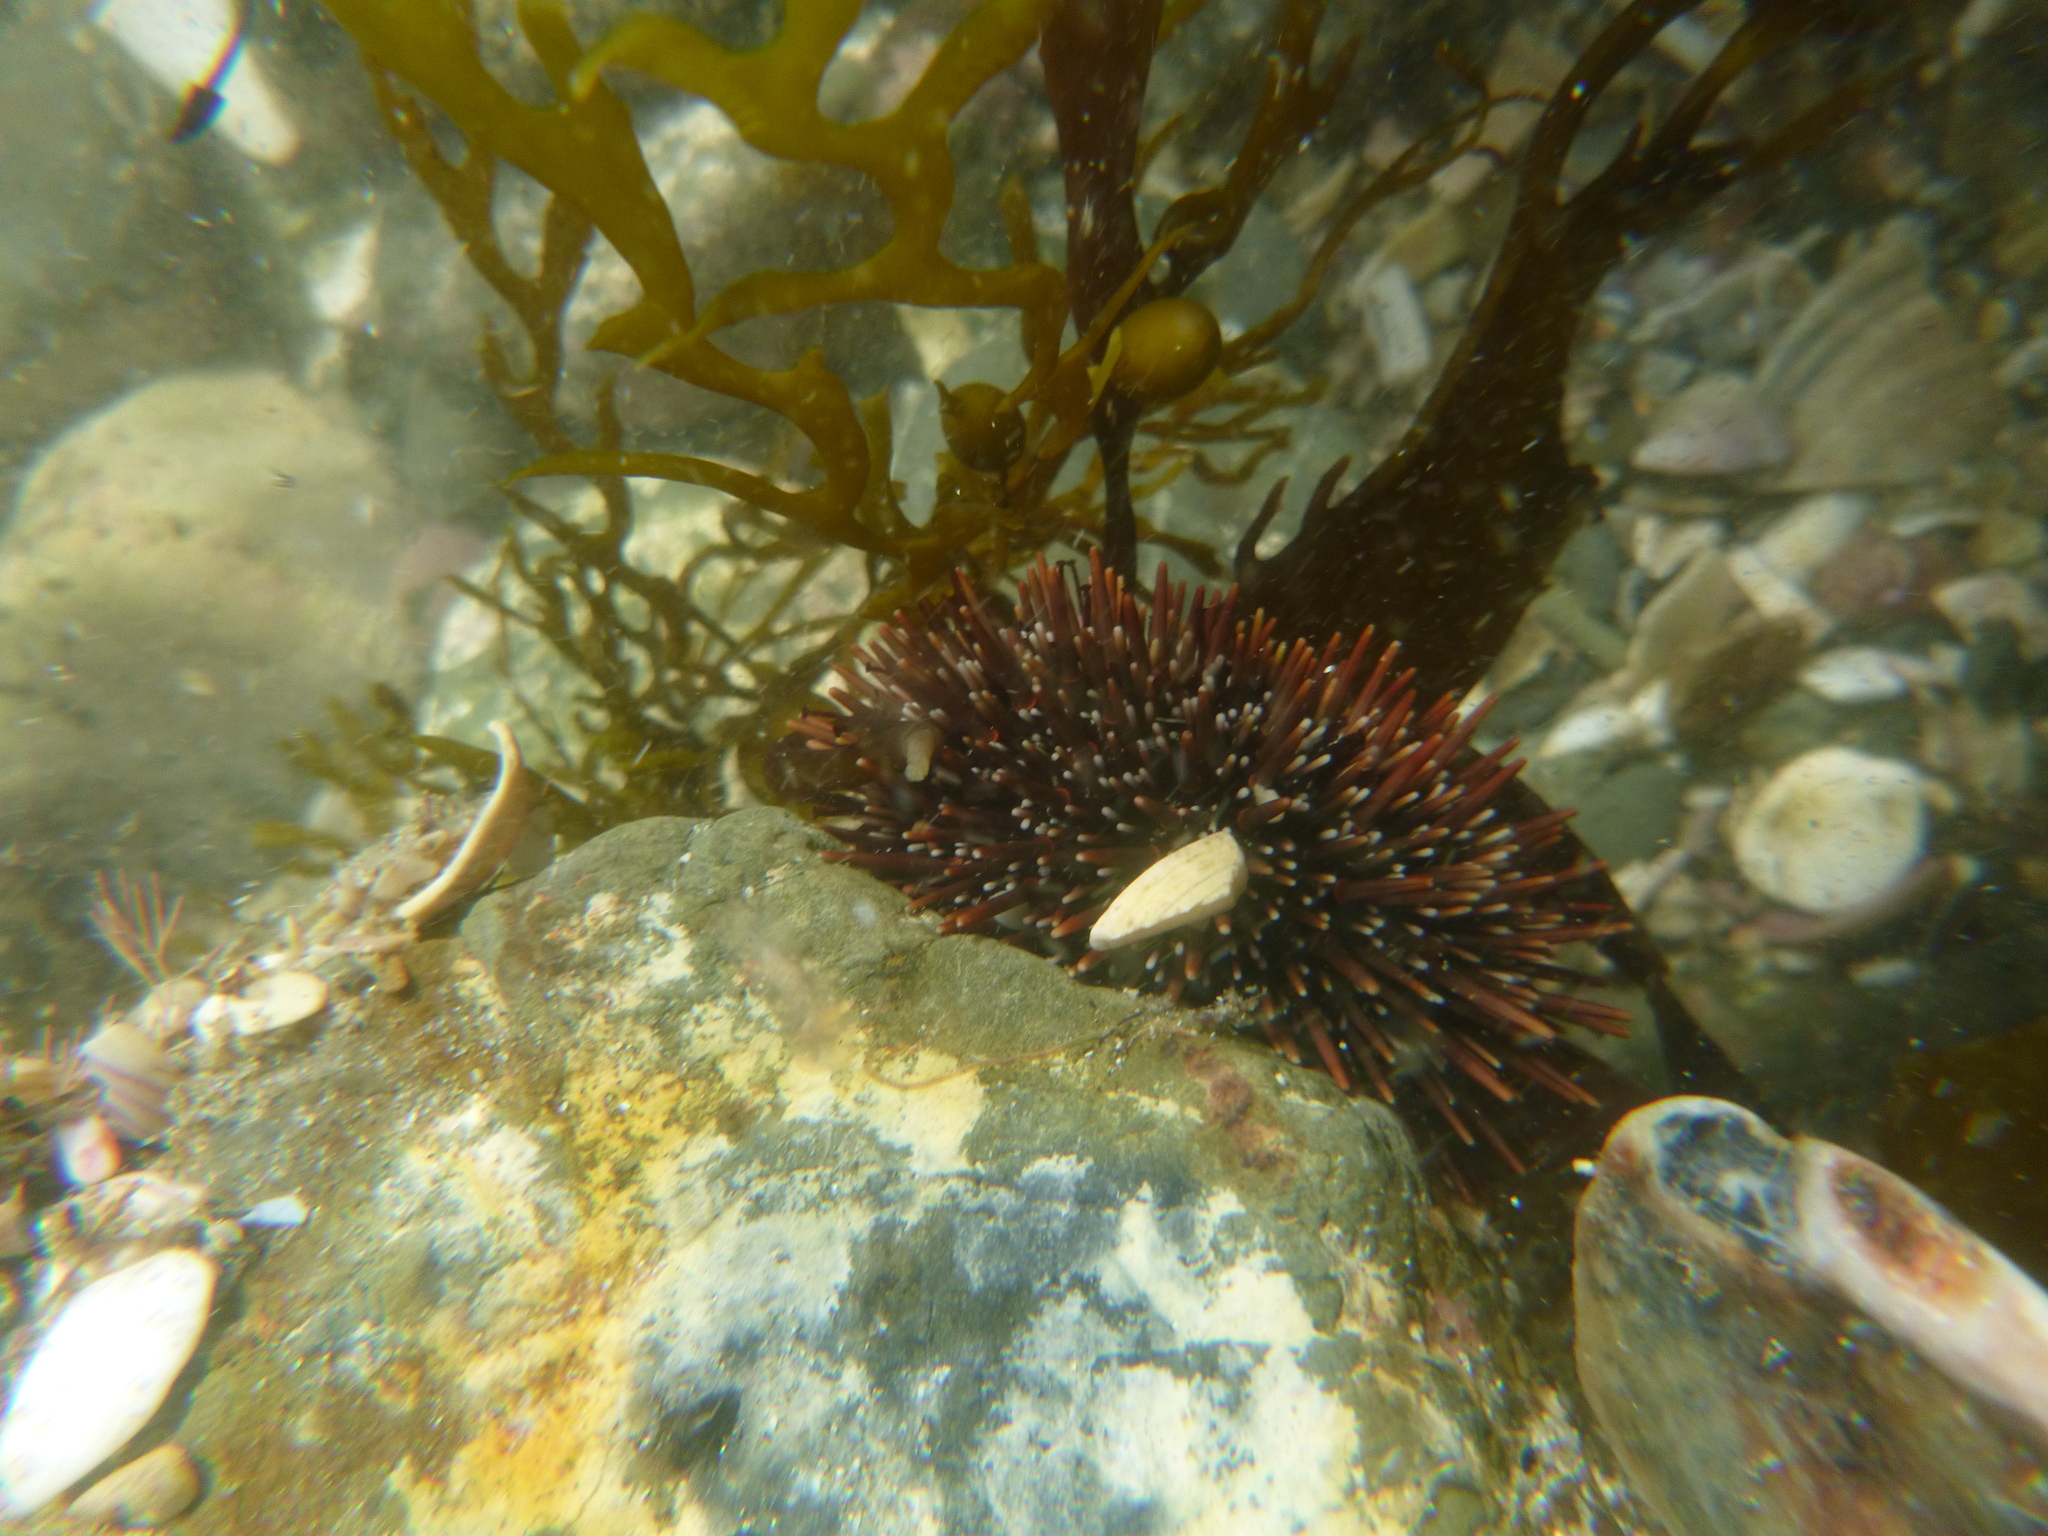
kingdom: Animalia
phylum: Echinodermata
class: Echinoidea
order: Camarodonta
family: Echinometridae
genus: Evechinus
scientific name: Evechinus chloroticus
